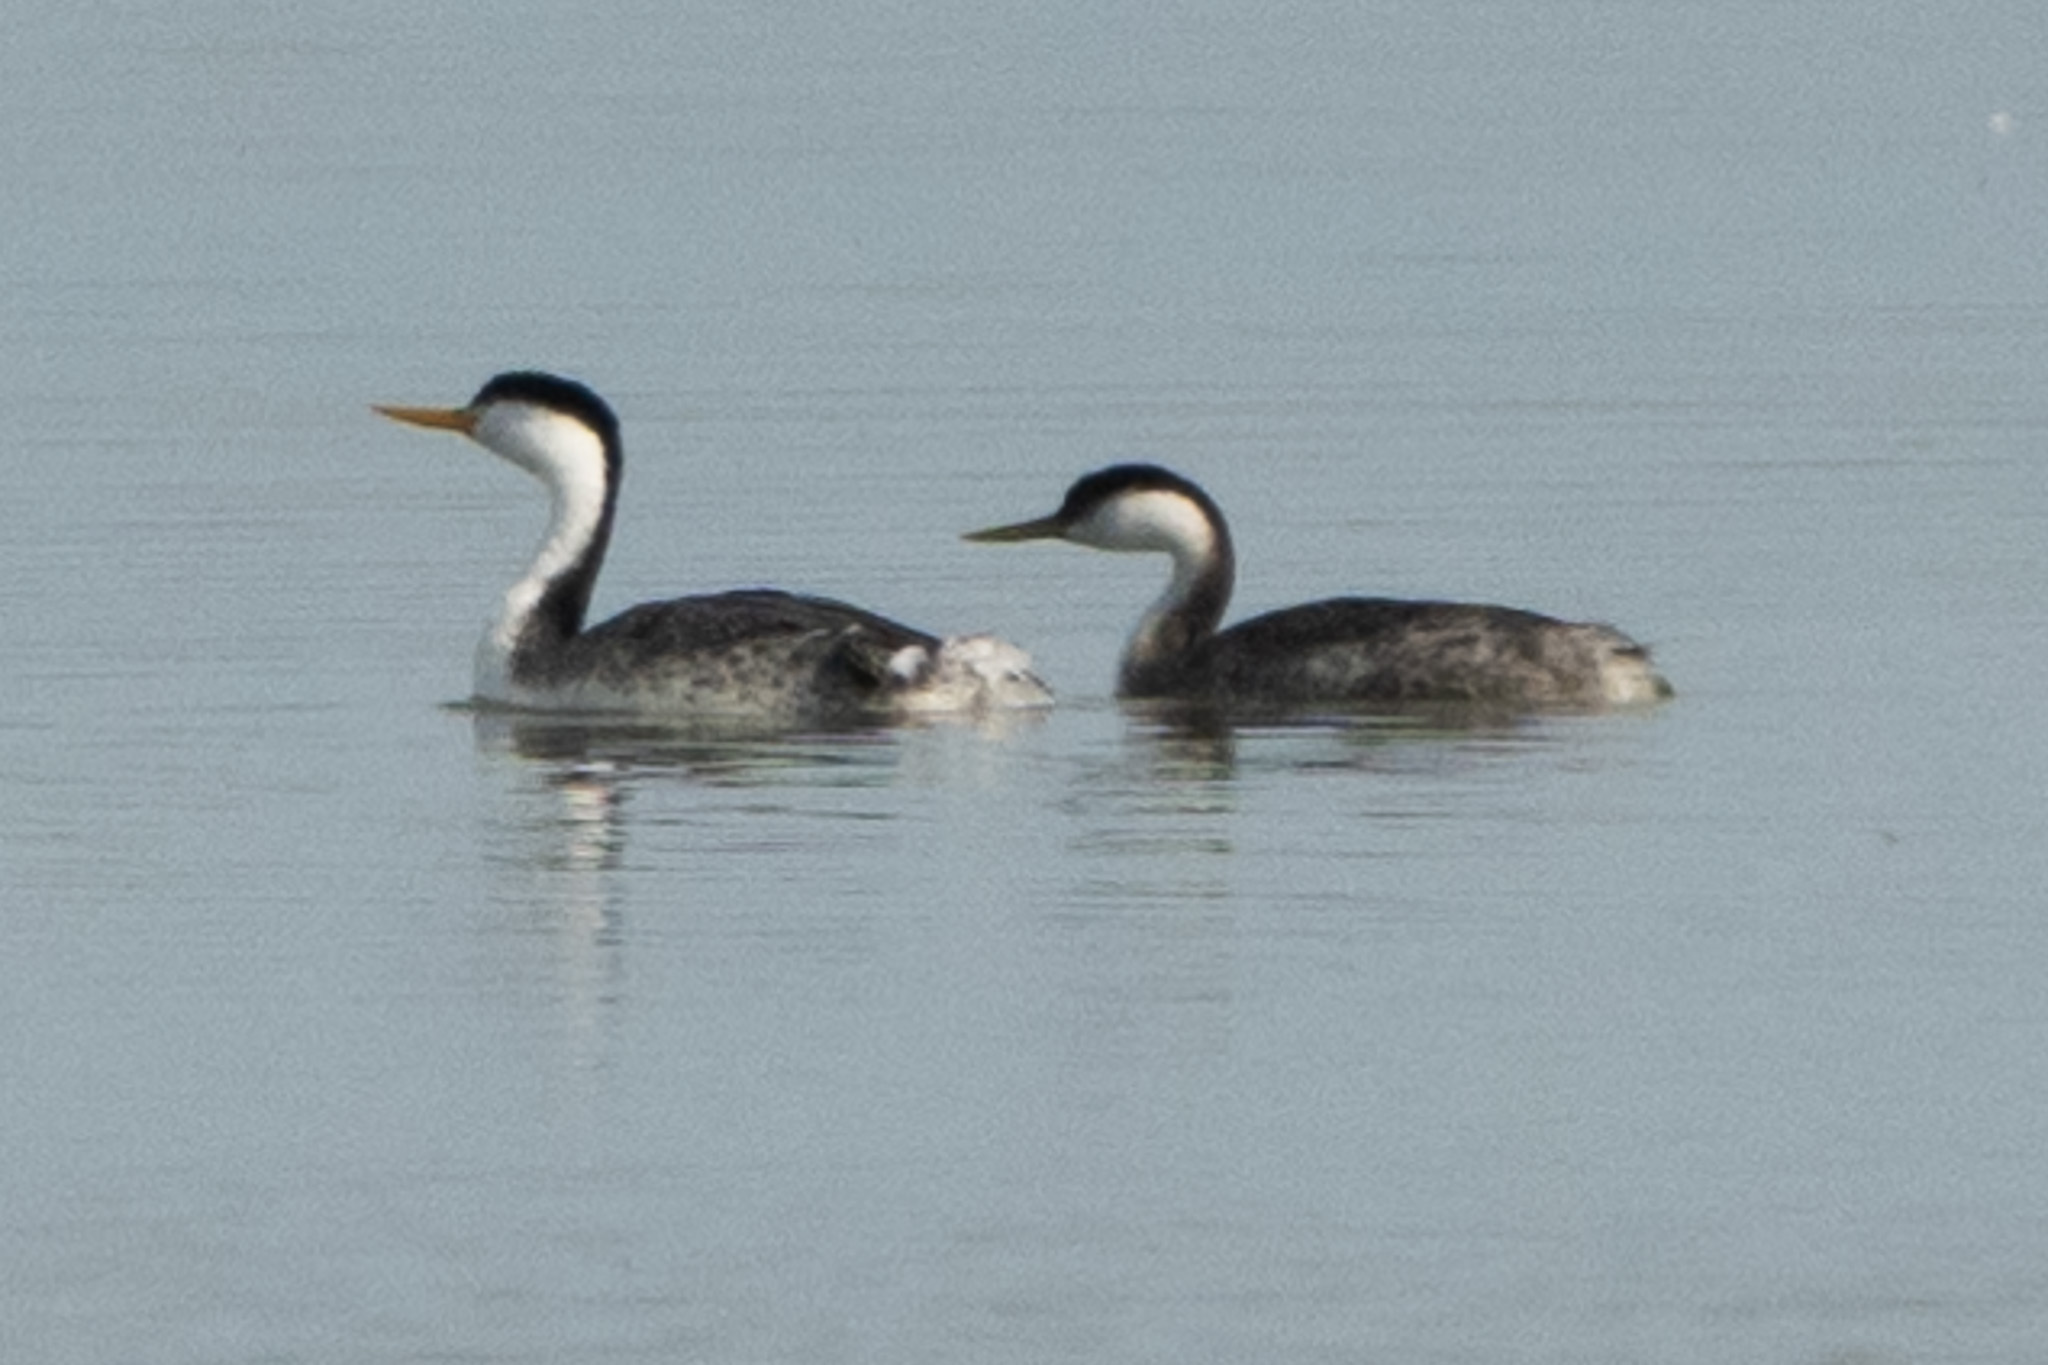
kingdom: Animalia
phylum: Chordata
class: Aves
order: Podicipediformes
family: Podicipedidae
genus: Aechmophorus
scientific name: Aechmophorus occidentalis
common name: Western grebe
